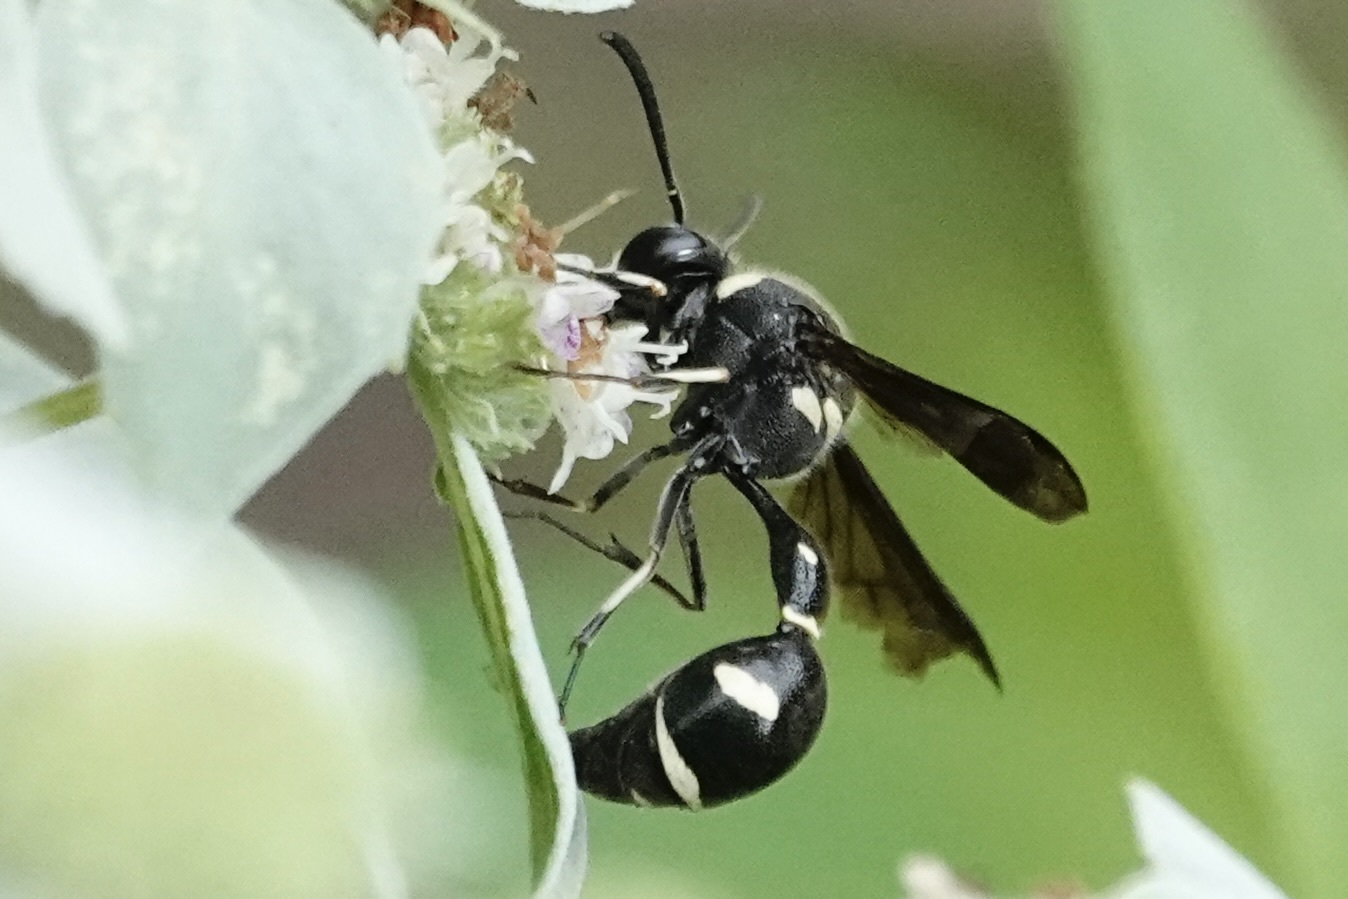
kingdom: Animalia
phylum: Arthropoda
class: Insecta
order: Hymenoptera
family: Vespidae
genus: Eumenes
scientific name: Eumenes fraternus
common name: Fraternal potter wasp
